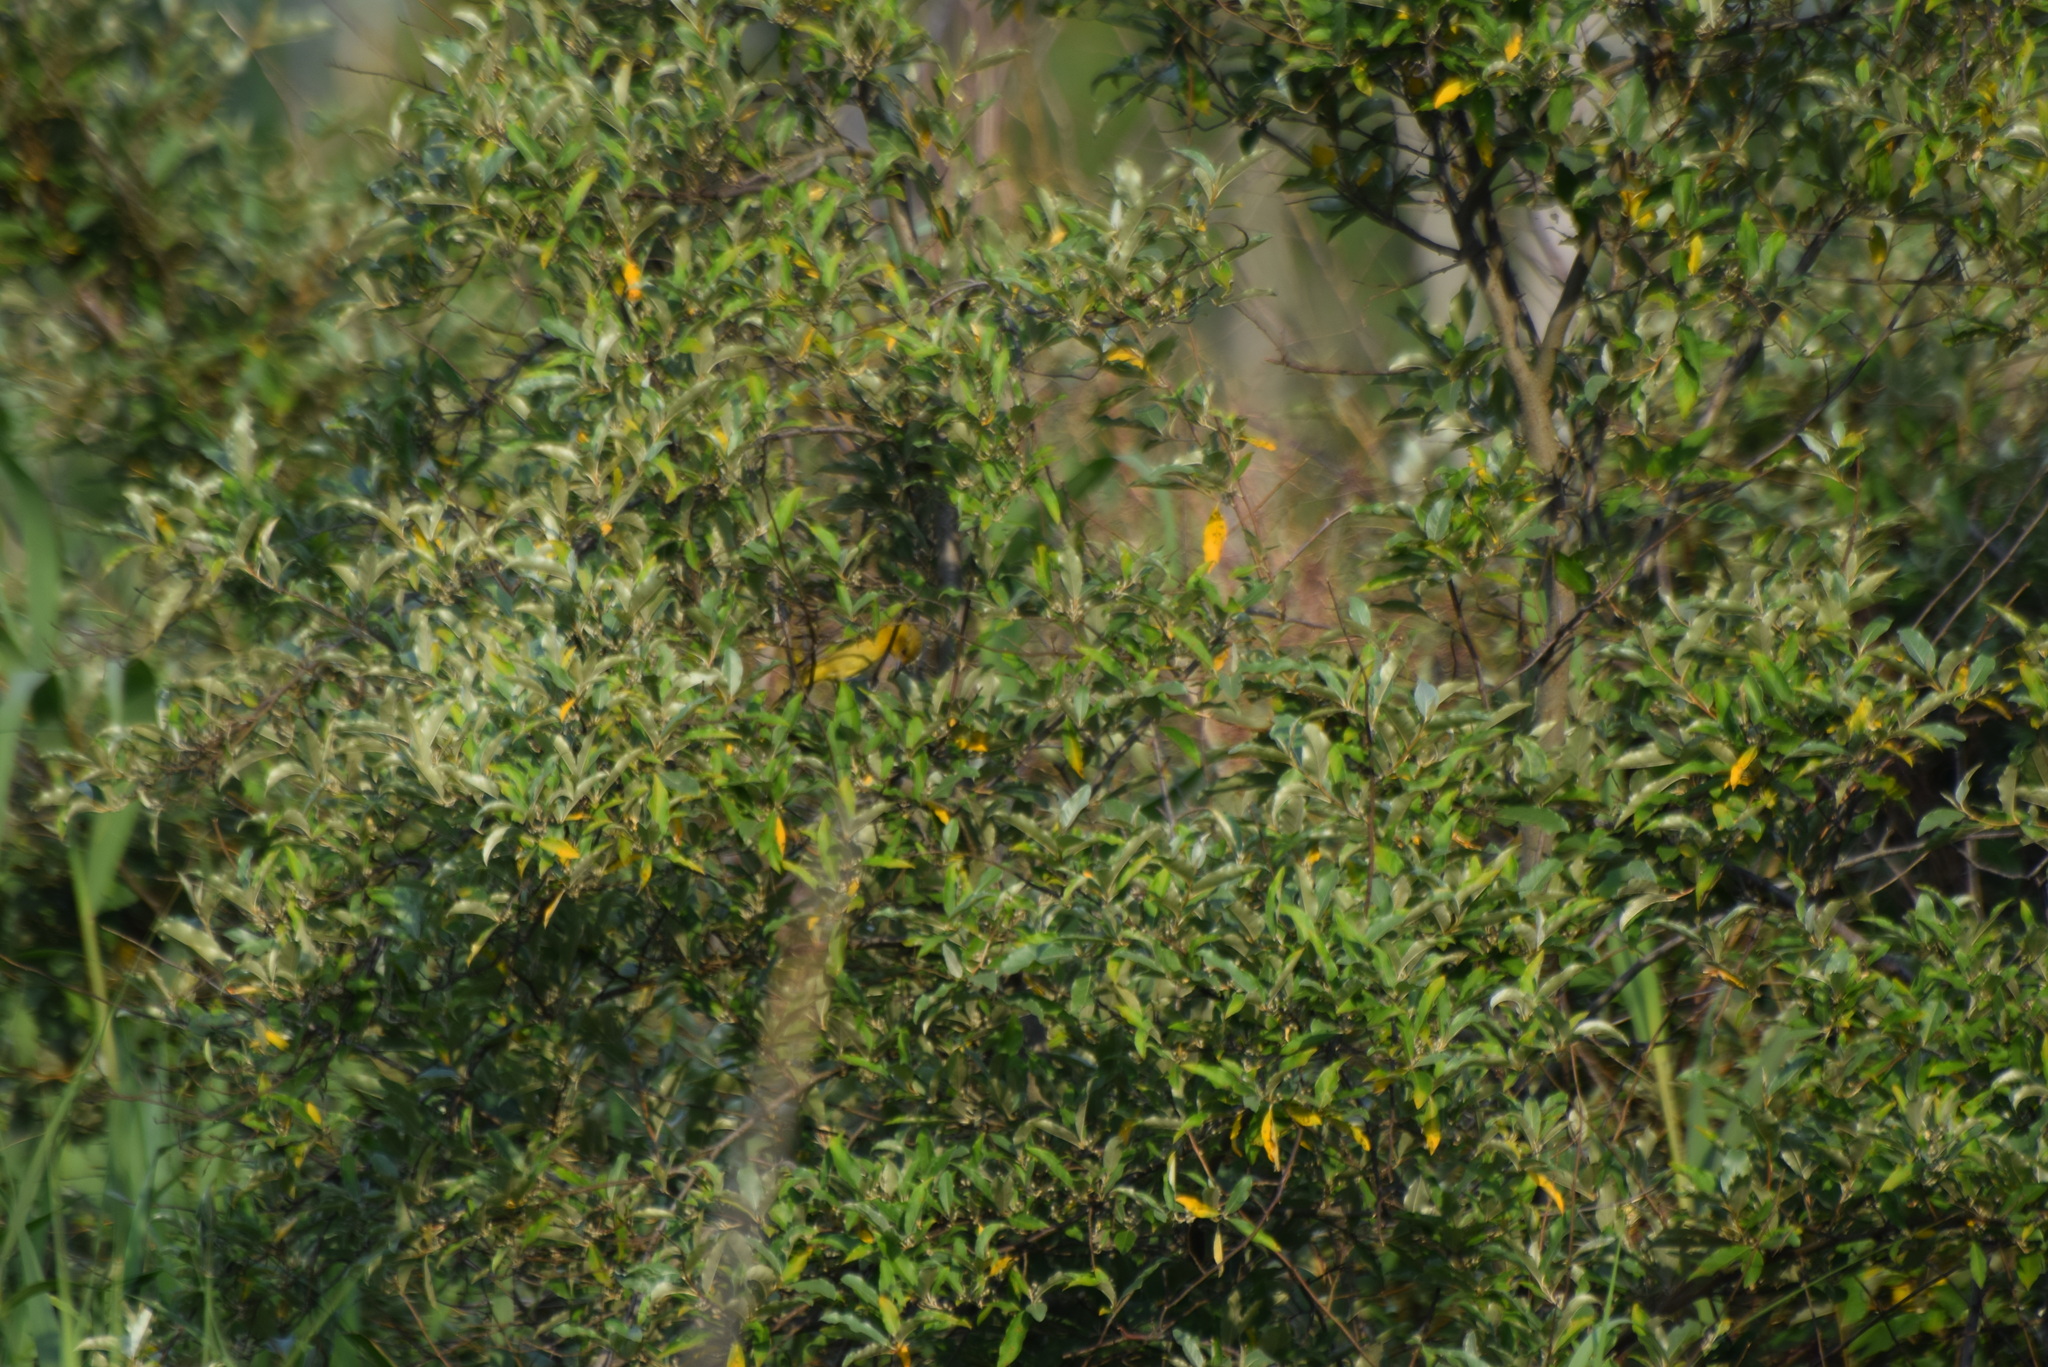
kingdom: Animalia
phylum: Chordata
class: Aves
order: Passeriformes
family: Icteridae
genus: Icterus
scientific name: Icterus spurius
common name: Orchard oriole
